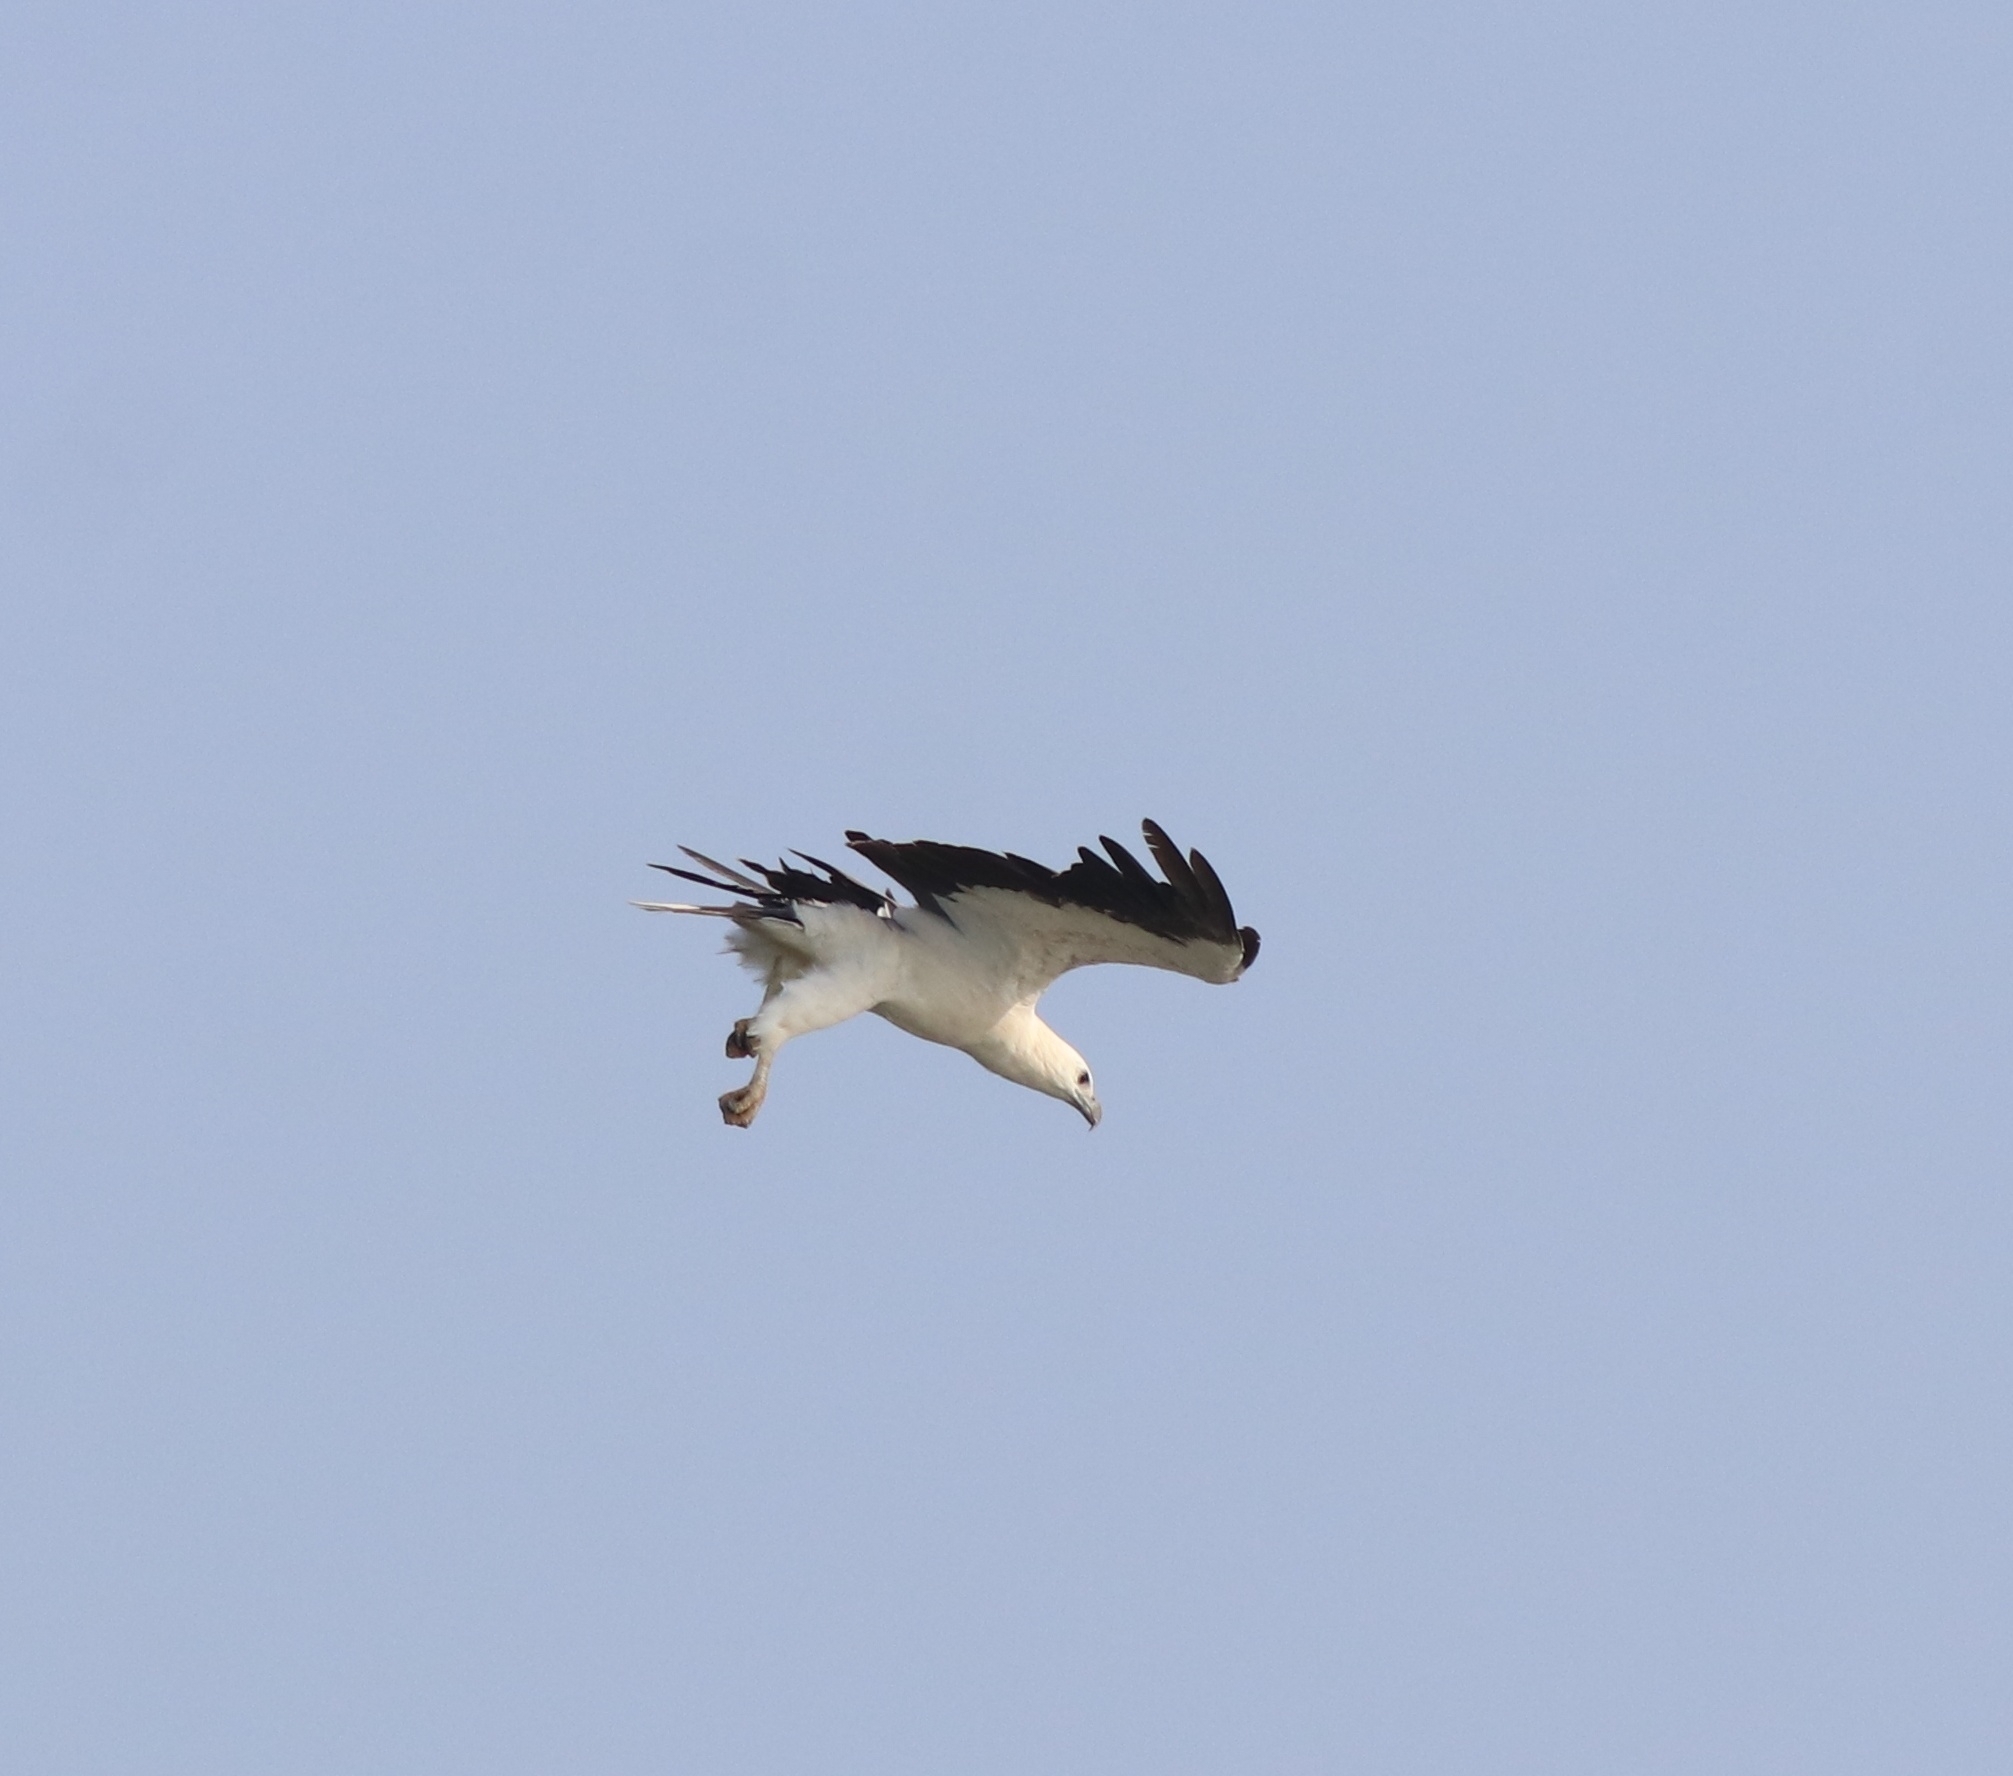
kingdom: Animalia
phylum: Chordata
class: Aves
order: Accipitriformes
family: Accipitridae
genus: Haliaeetus
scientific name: Haliaeetus leucogaster
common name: White-bellied sea eagle
